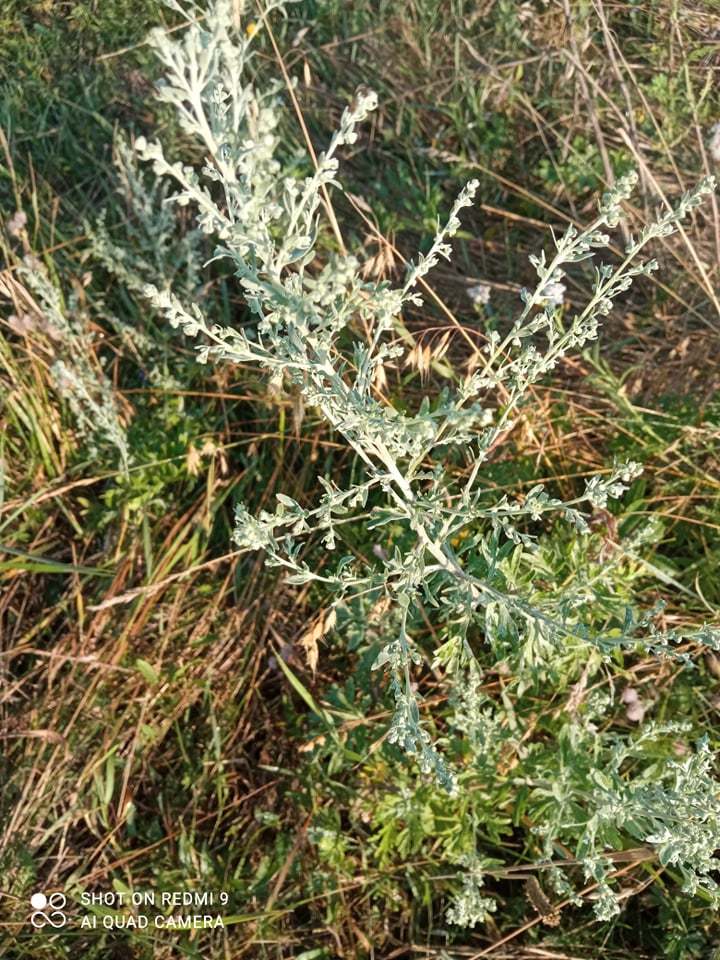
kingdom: Plantae
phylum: Tracheophyta
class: Magnoliopsida
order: Asterales
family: Asteraceae
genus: Artemisia
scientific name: Artemisia absinthium
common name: Wormwood
